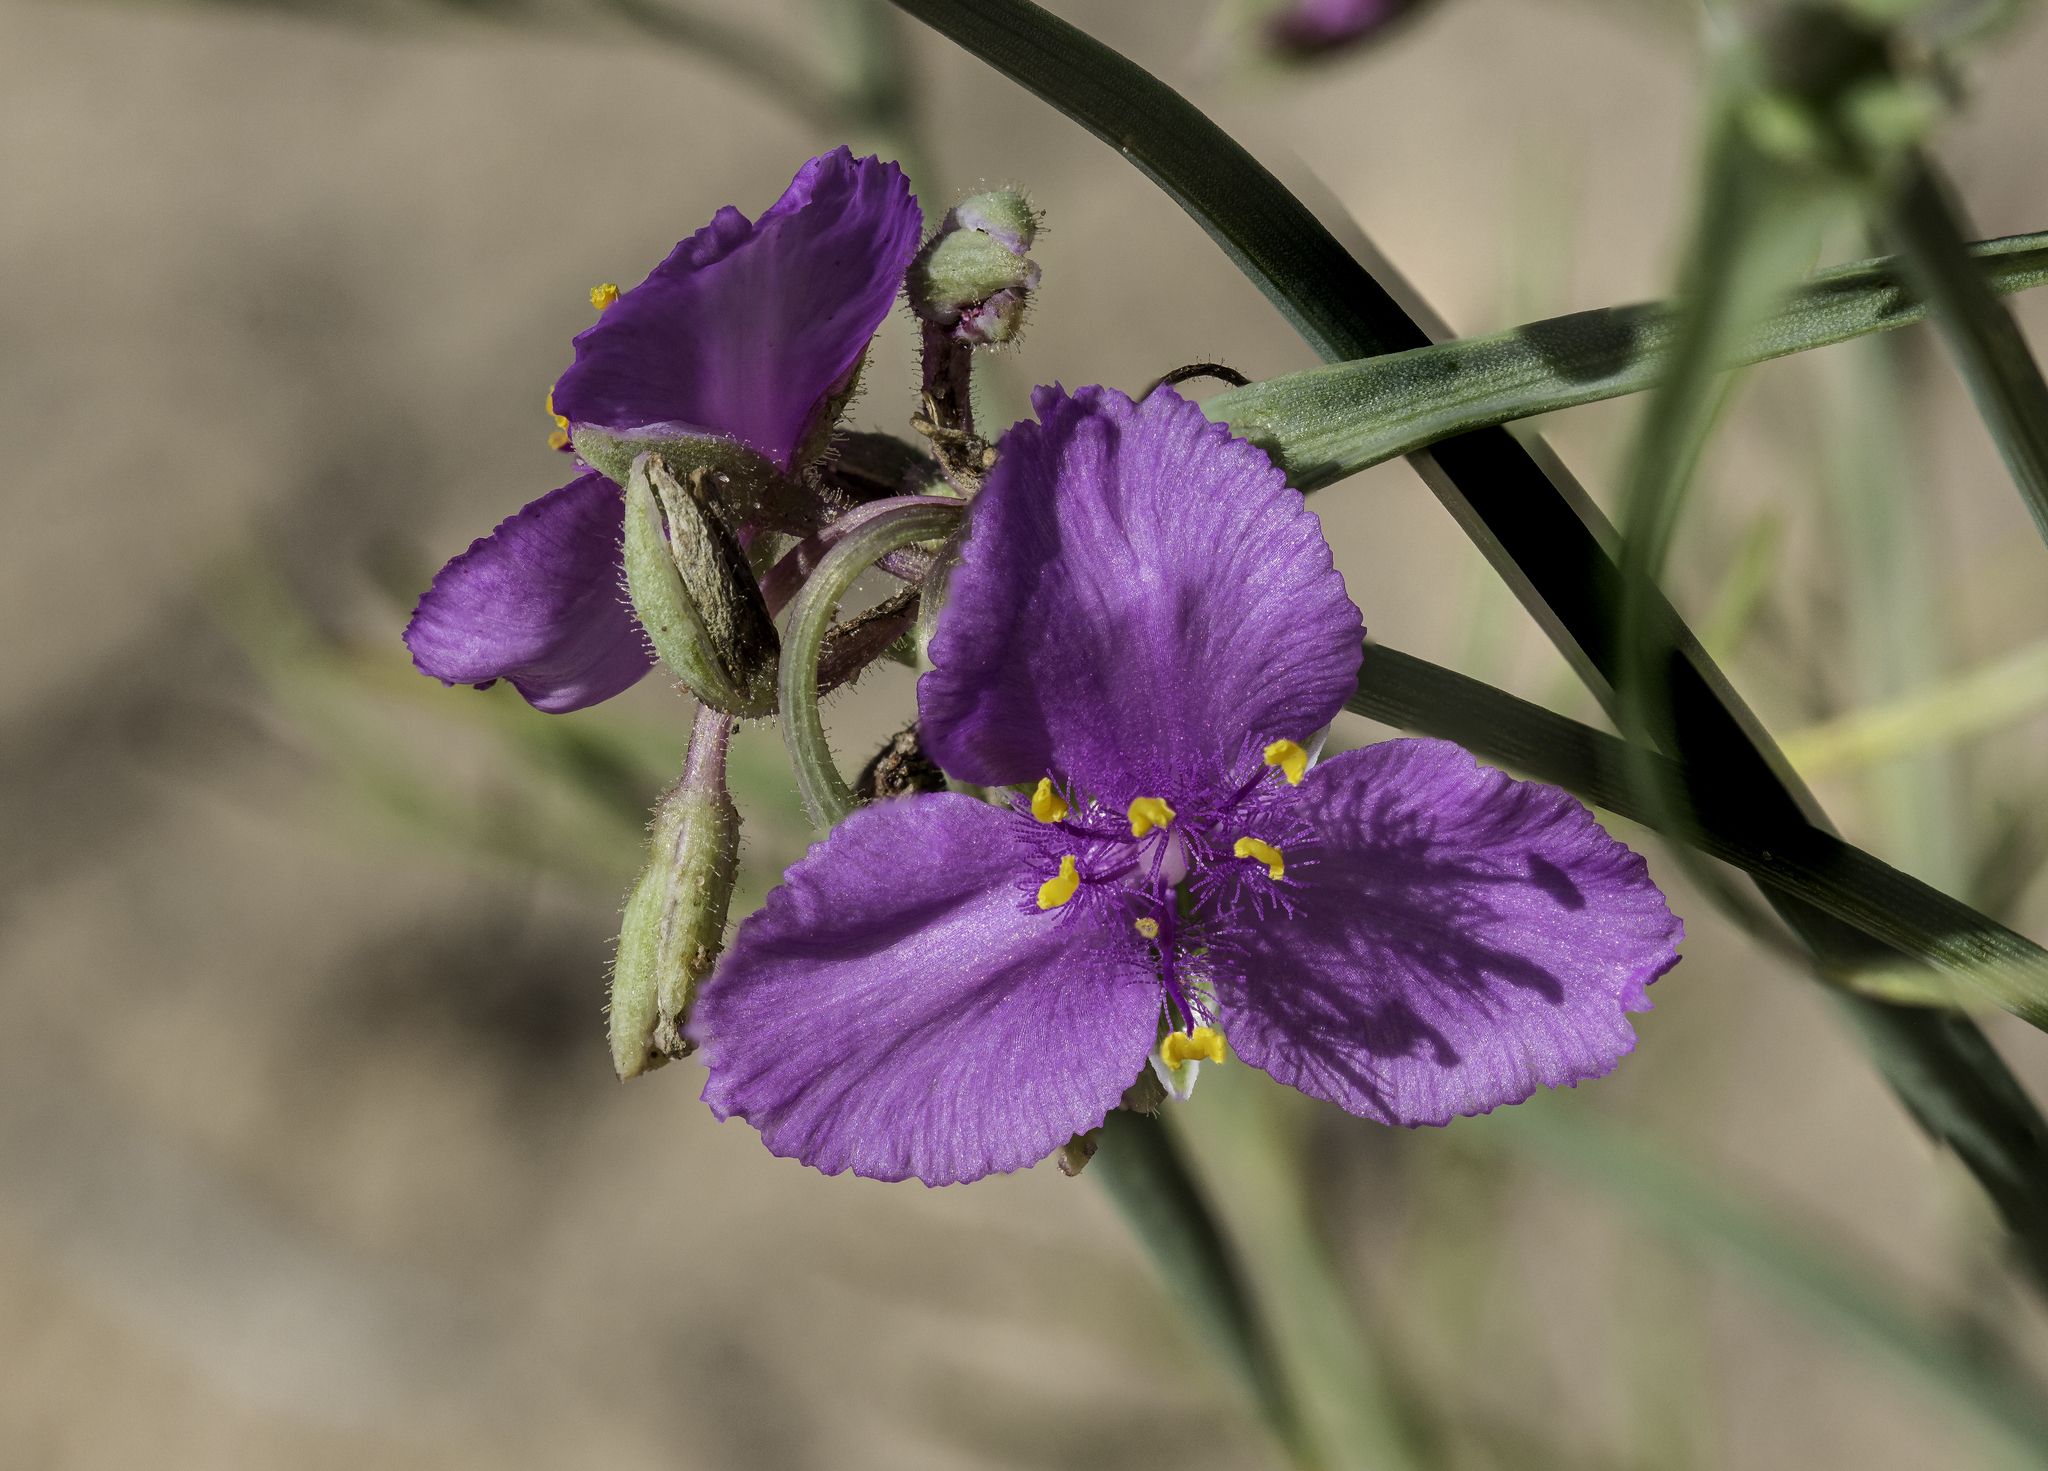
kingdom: Plantae
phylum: Tracheophyta
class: Liliopsida
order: Commelinales
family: Commelinaceae
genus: Tradescantia
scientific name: Tradescantia occidentalis
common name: Prairie spiderwort
